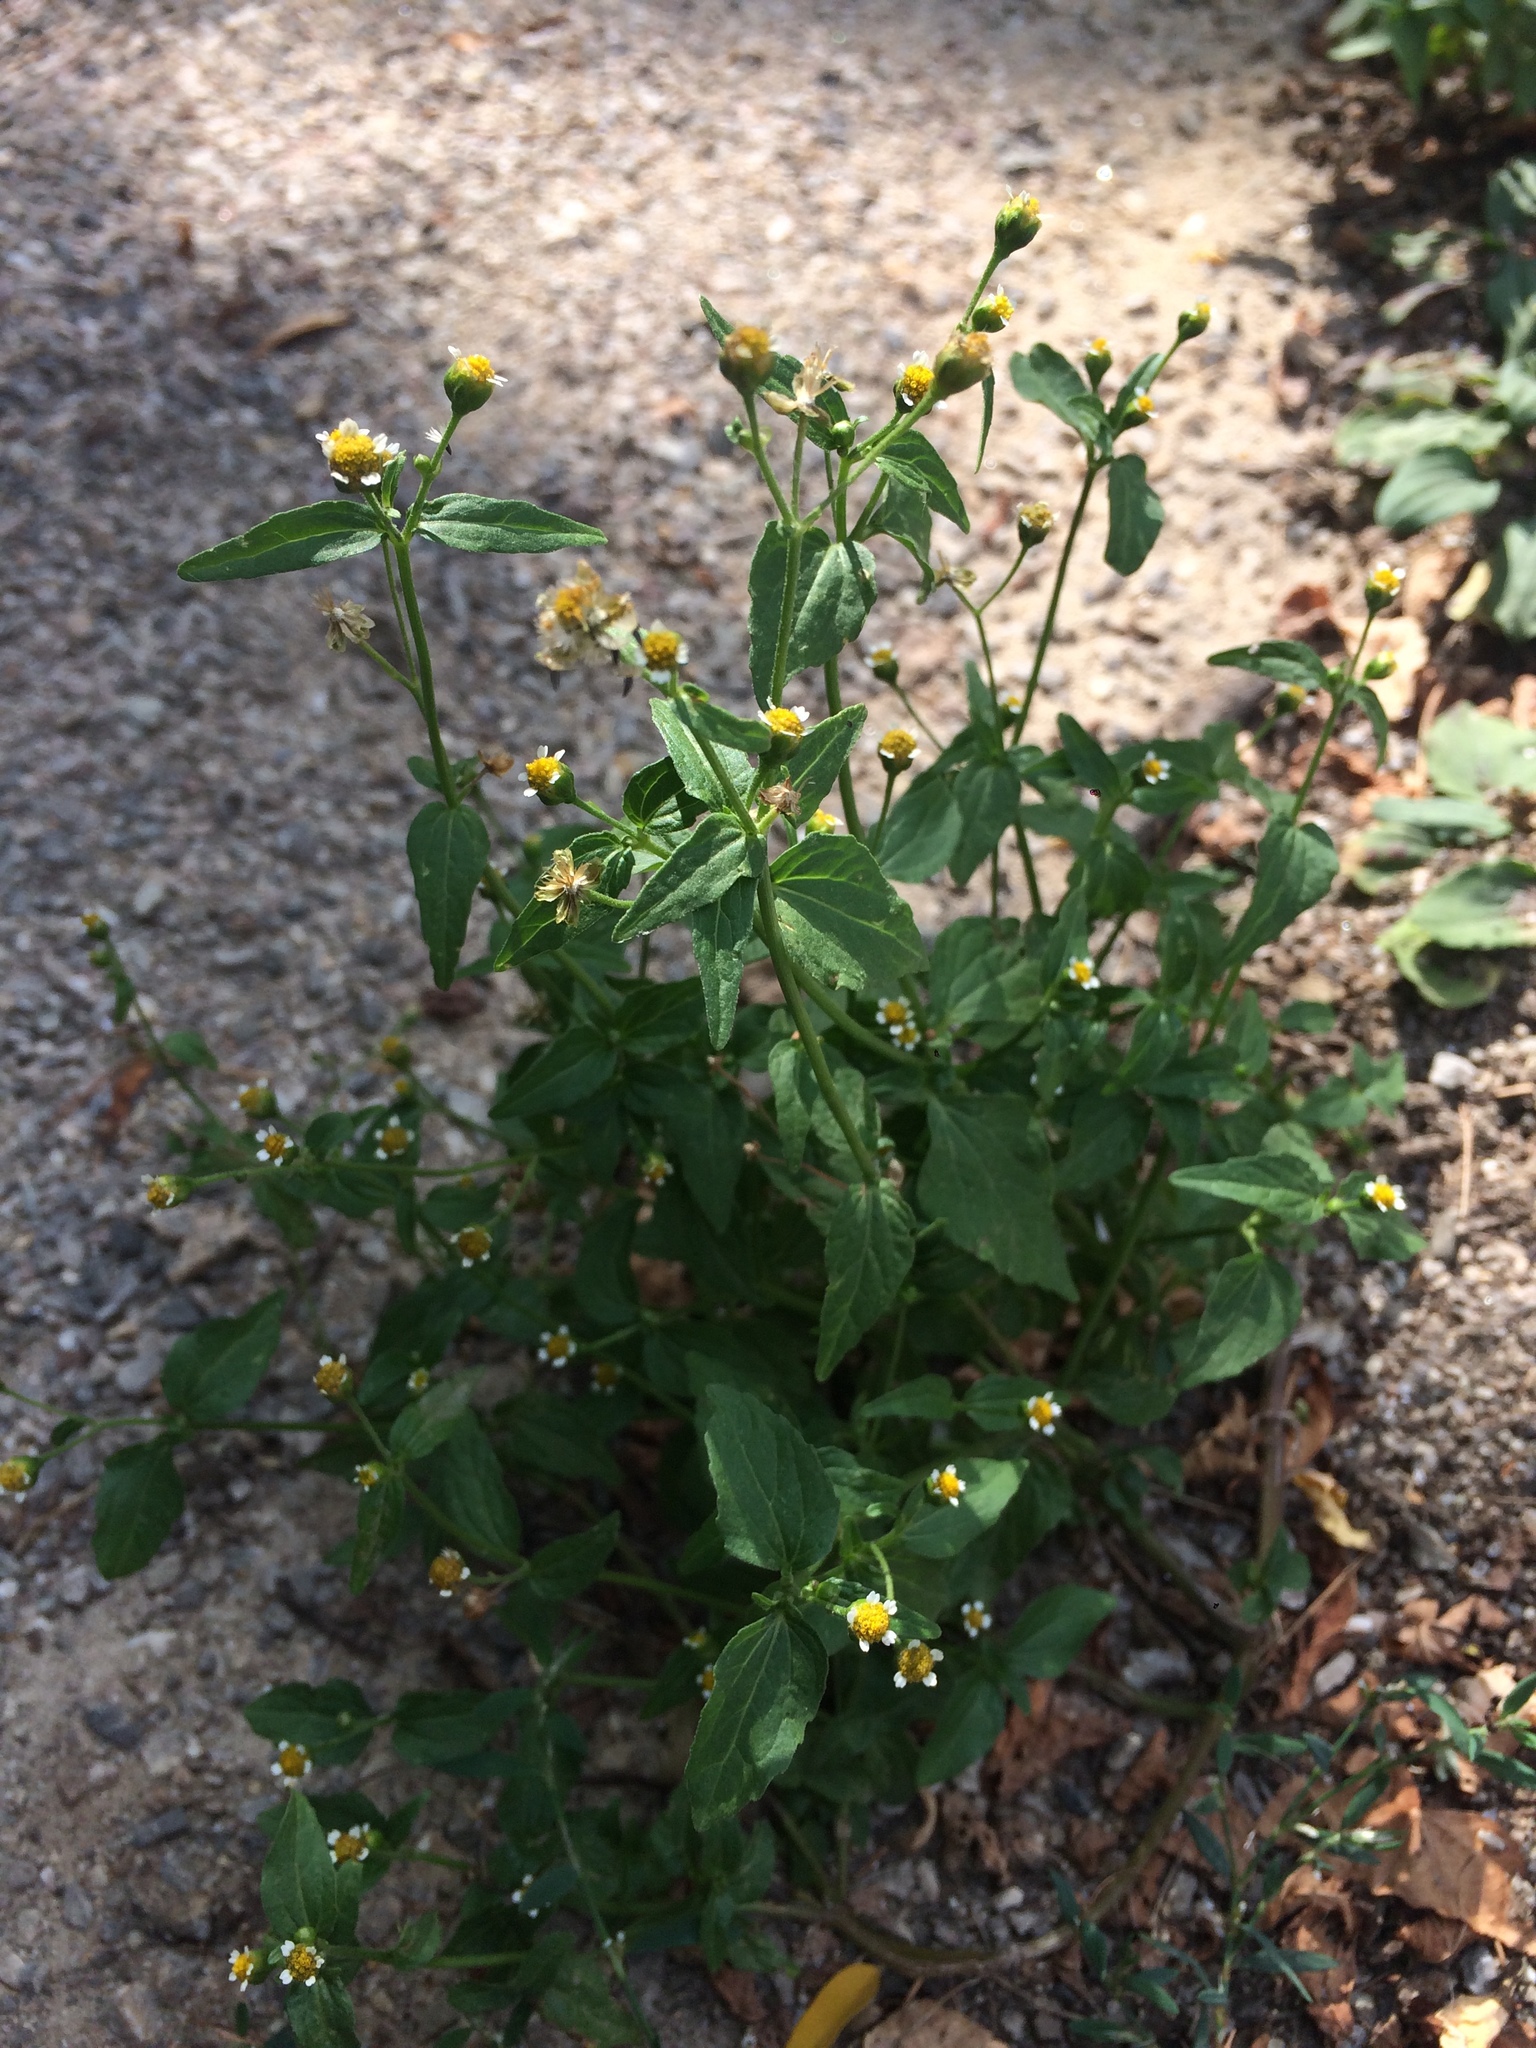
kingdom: Plantae
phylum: Tracheophyta
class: Magnoliopsida
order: Asterales
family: Asteraceae
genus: Galinsoga
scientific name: Galinsoga parviflora
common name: Gallant soldier
